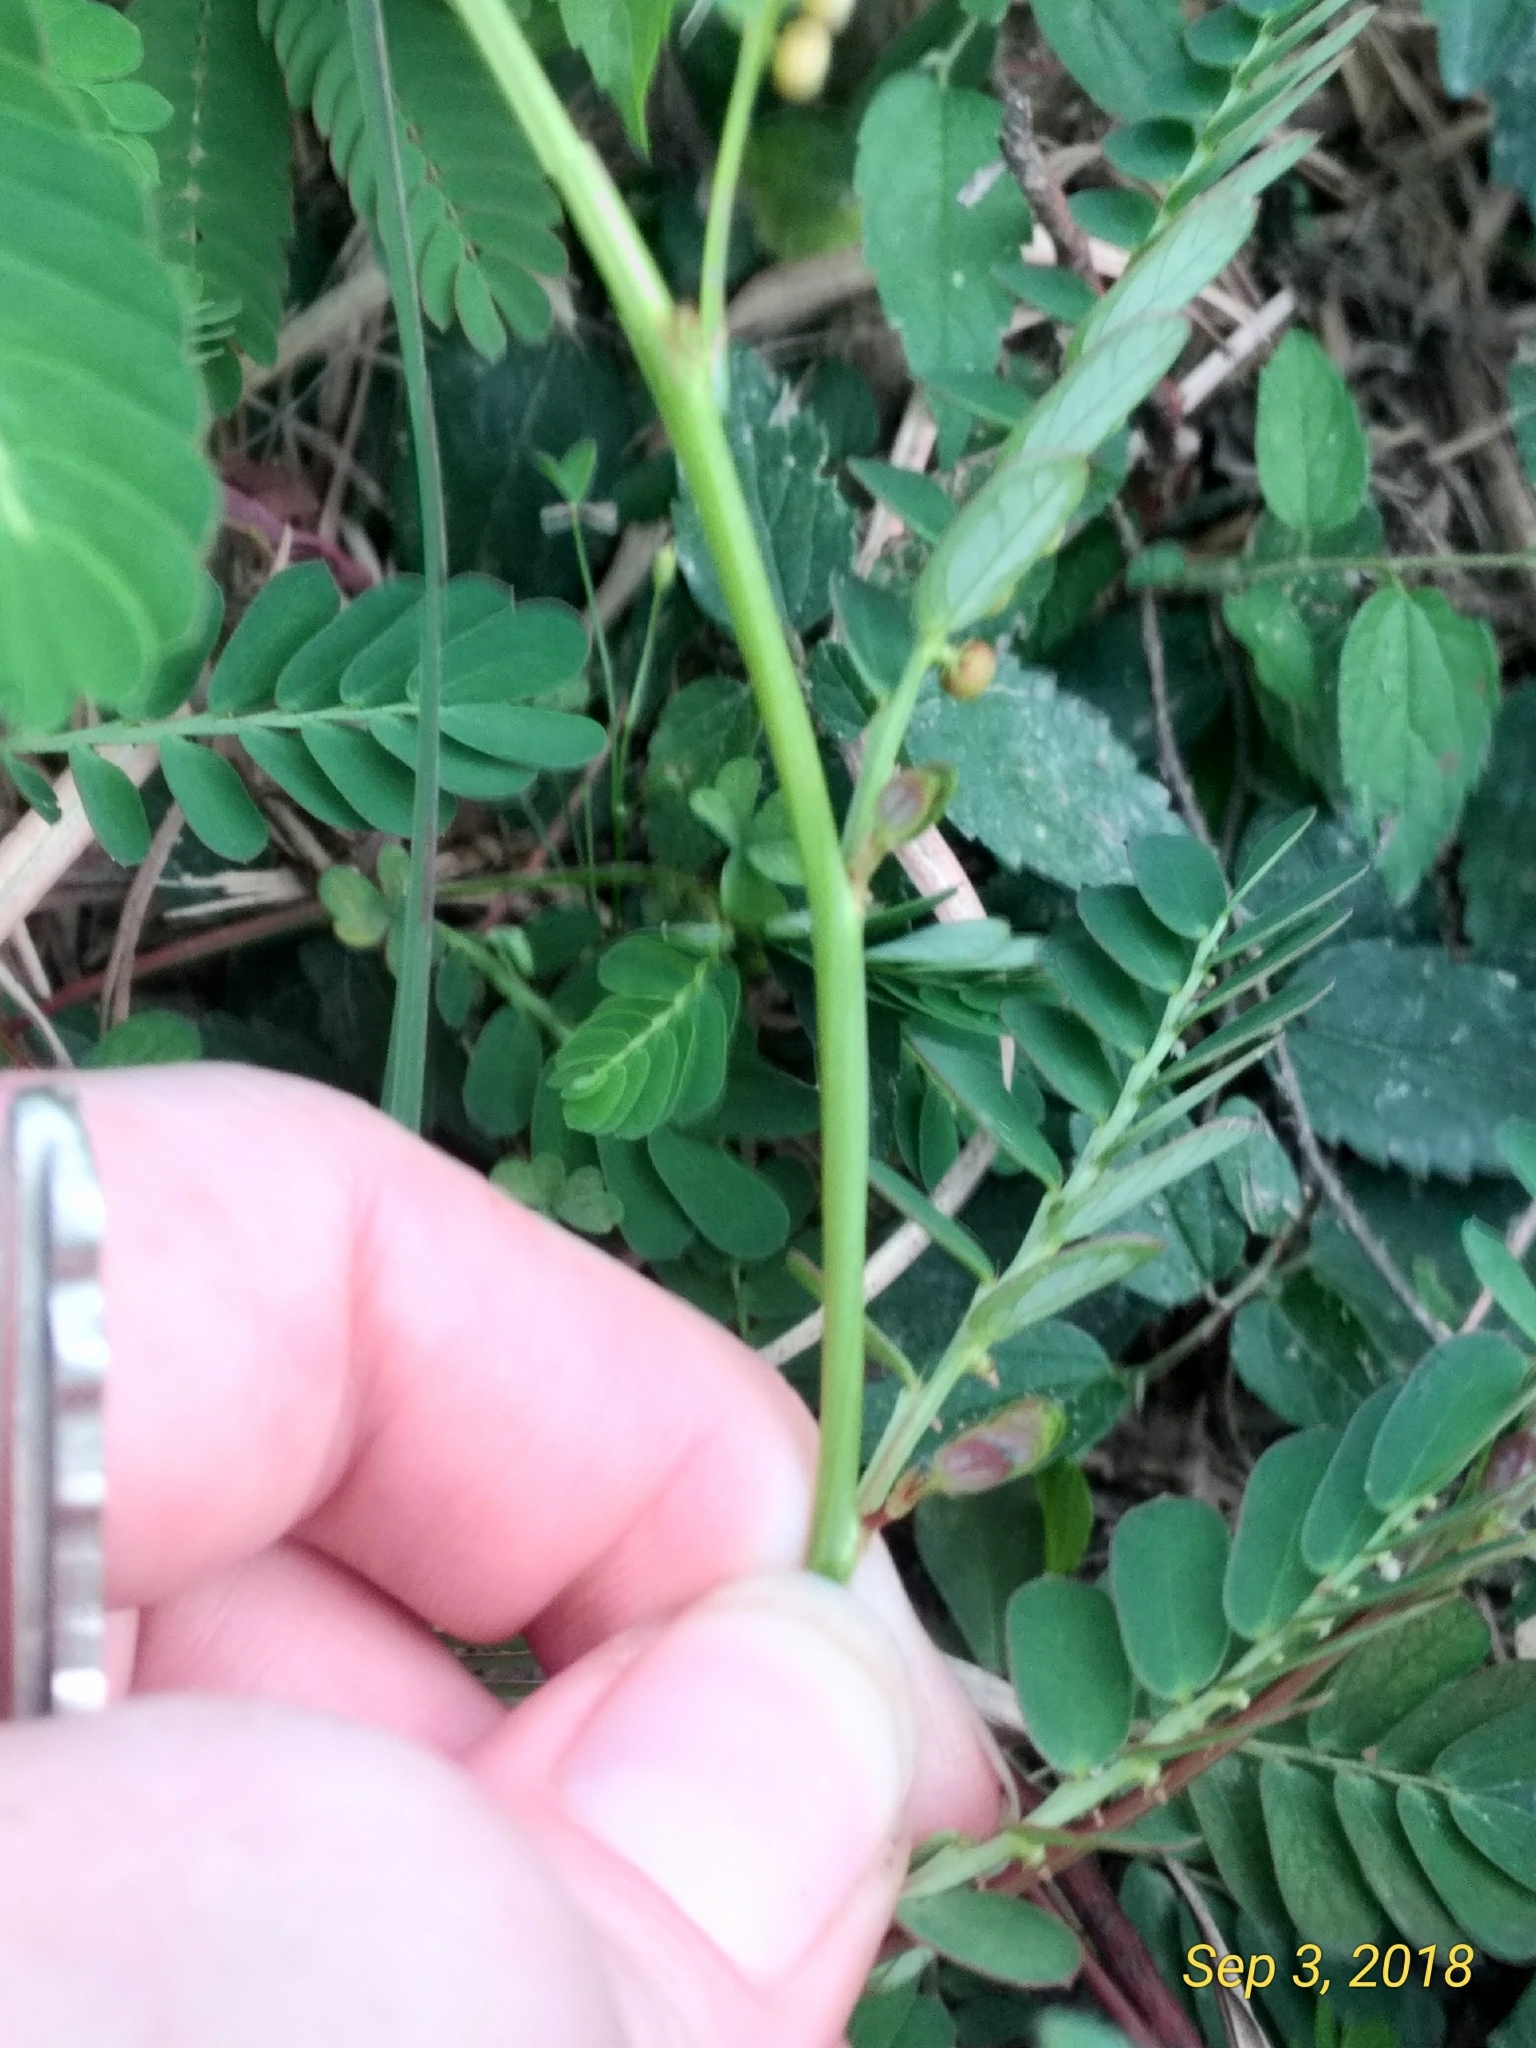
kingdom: Plantae
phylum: Tracheophyta
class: Magnoliopsida
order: Malpighiales
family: Phyllanthaceae
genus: Phyllanthus
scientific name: Phyllanthus urinaria
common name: Chamber bitter
